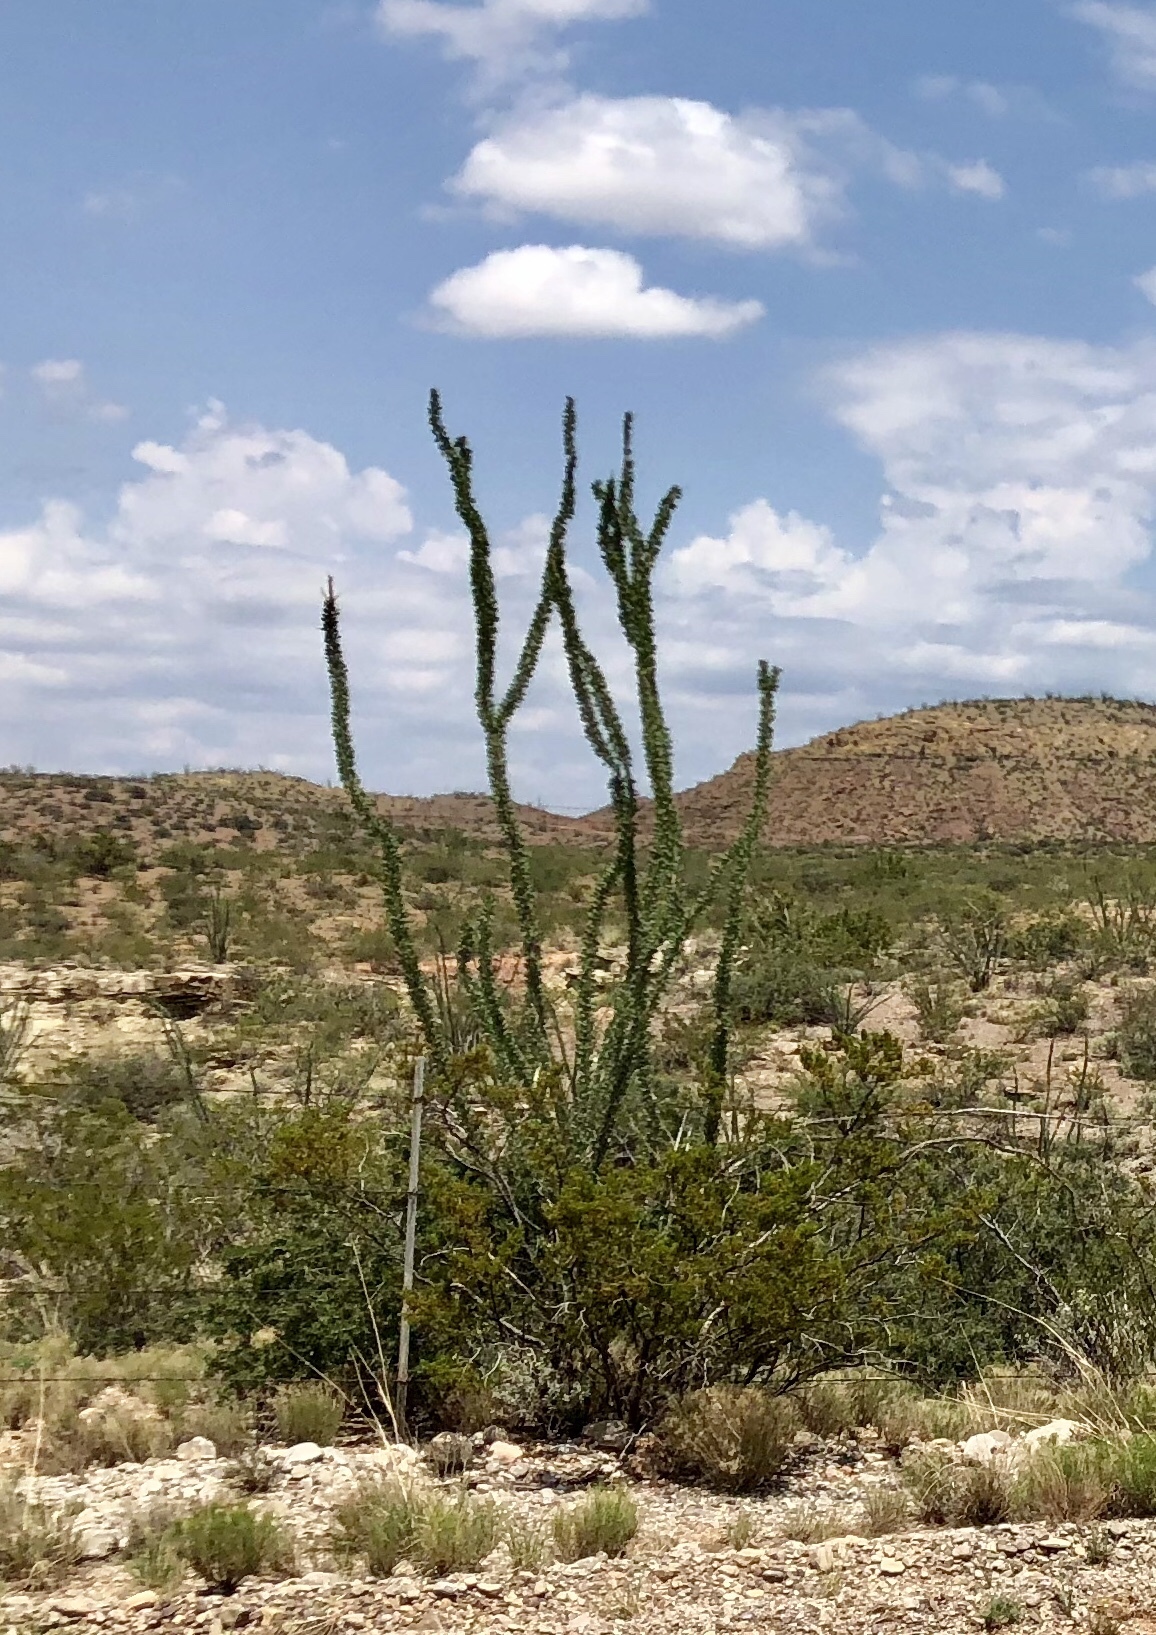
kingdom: Plantae
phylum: Tracheophyta
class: Magnoliopsida
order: Ericales
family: Fouquieriaceae
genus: Fouquieria
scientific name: Fouquieria splendens
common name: Vine-cactus
